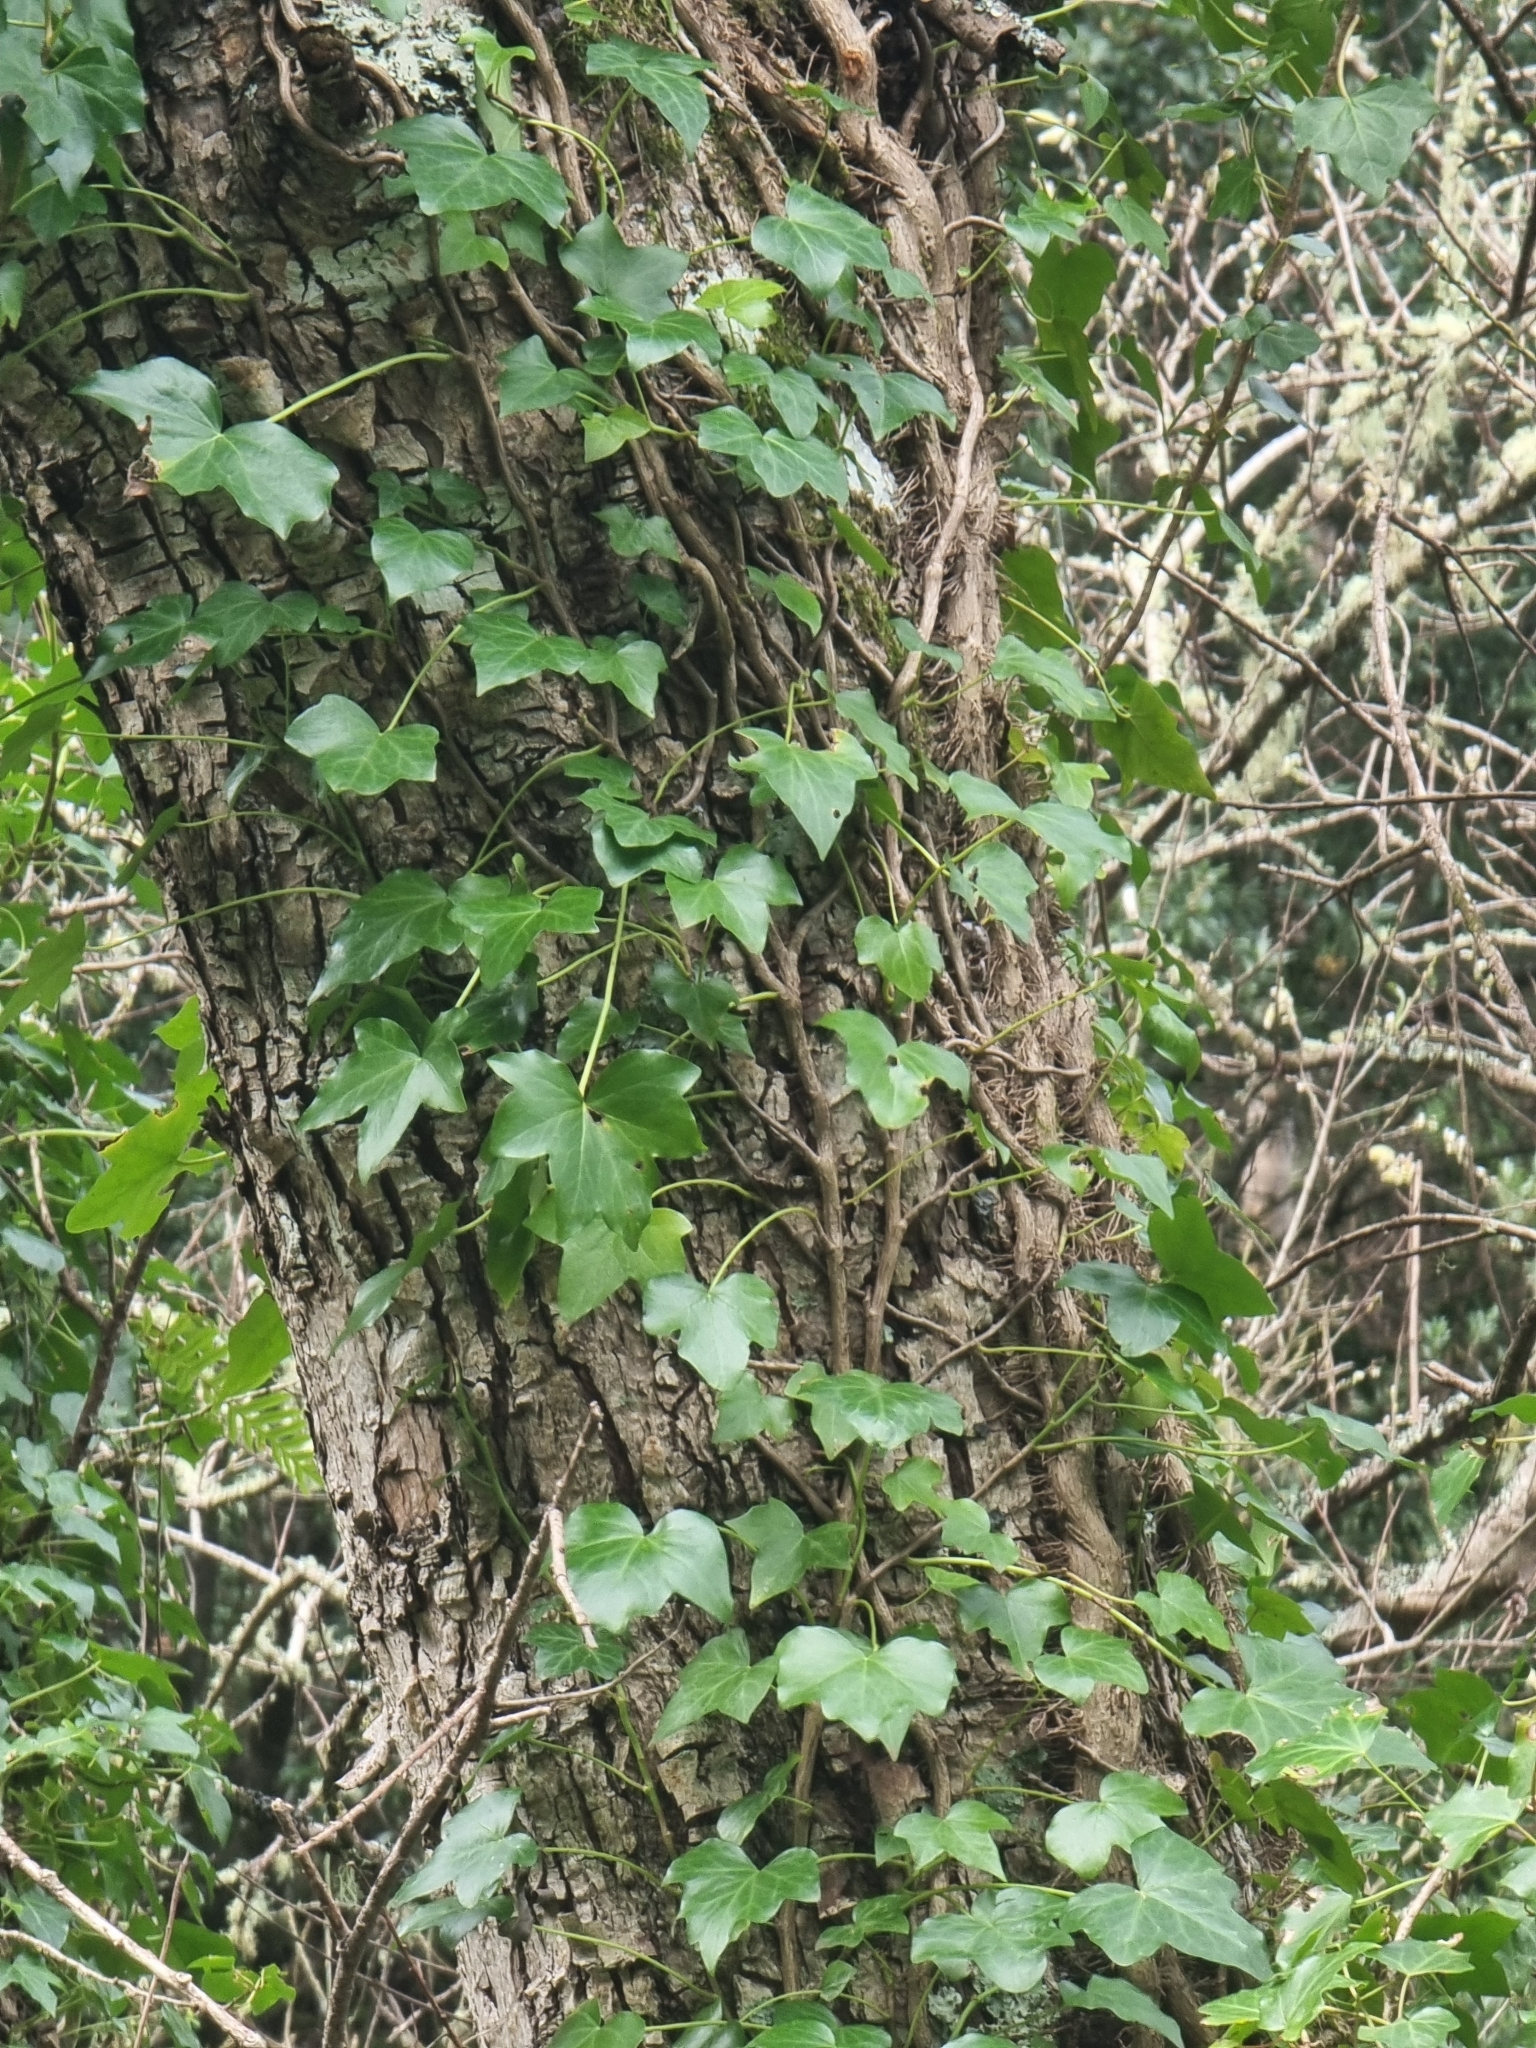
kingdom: Plantae
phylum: Tracheophyta
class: Magnoliopsida
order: Apiales
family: Araliaceae
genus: Hedera
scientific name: Hedera maderensis
